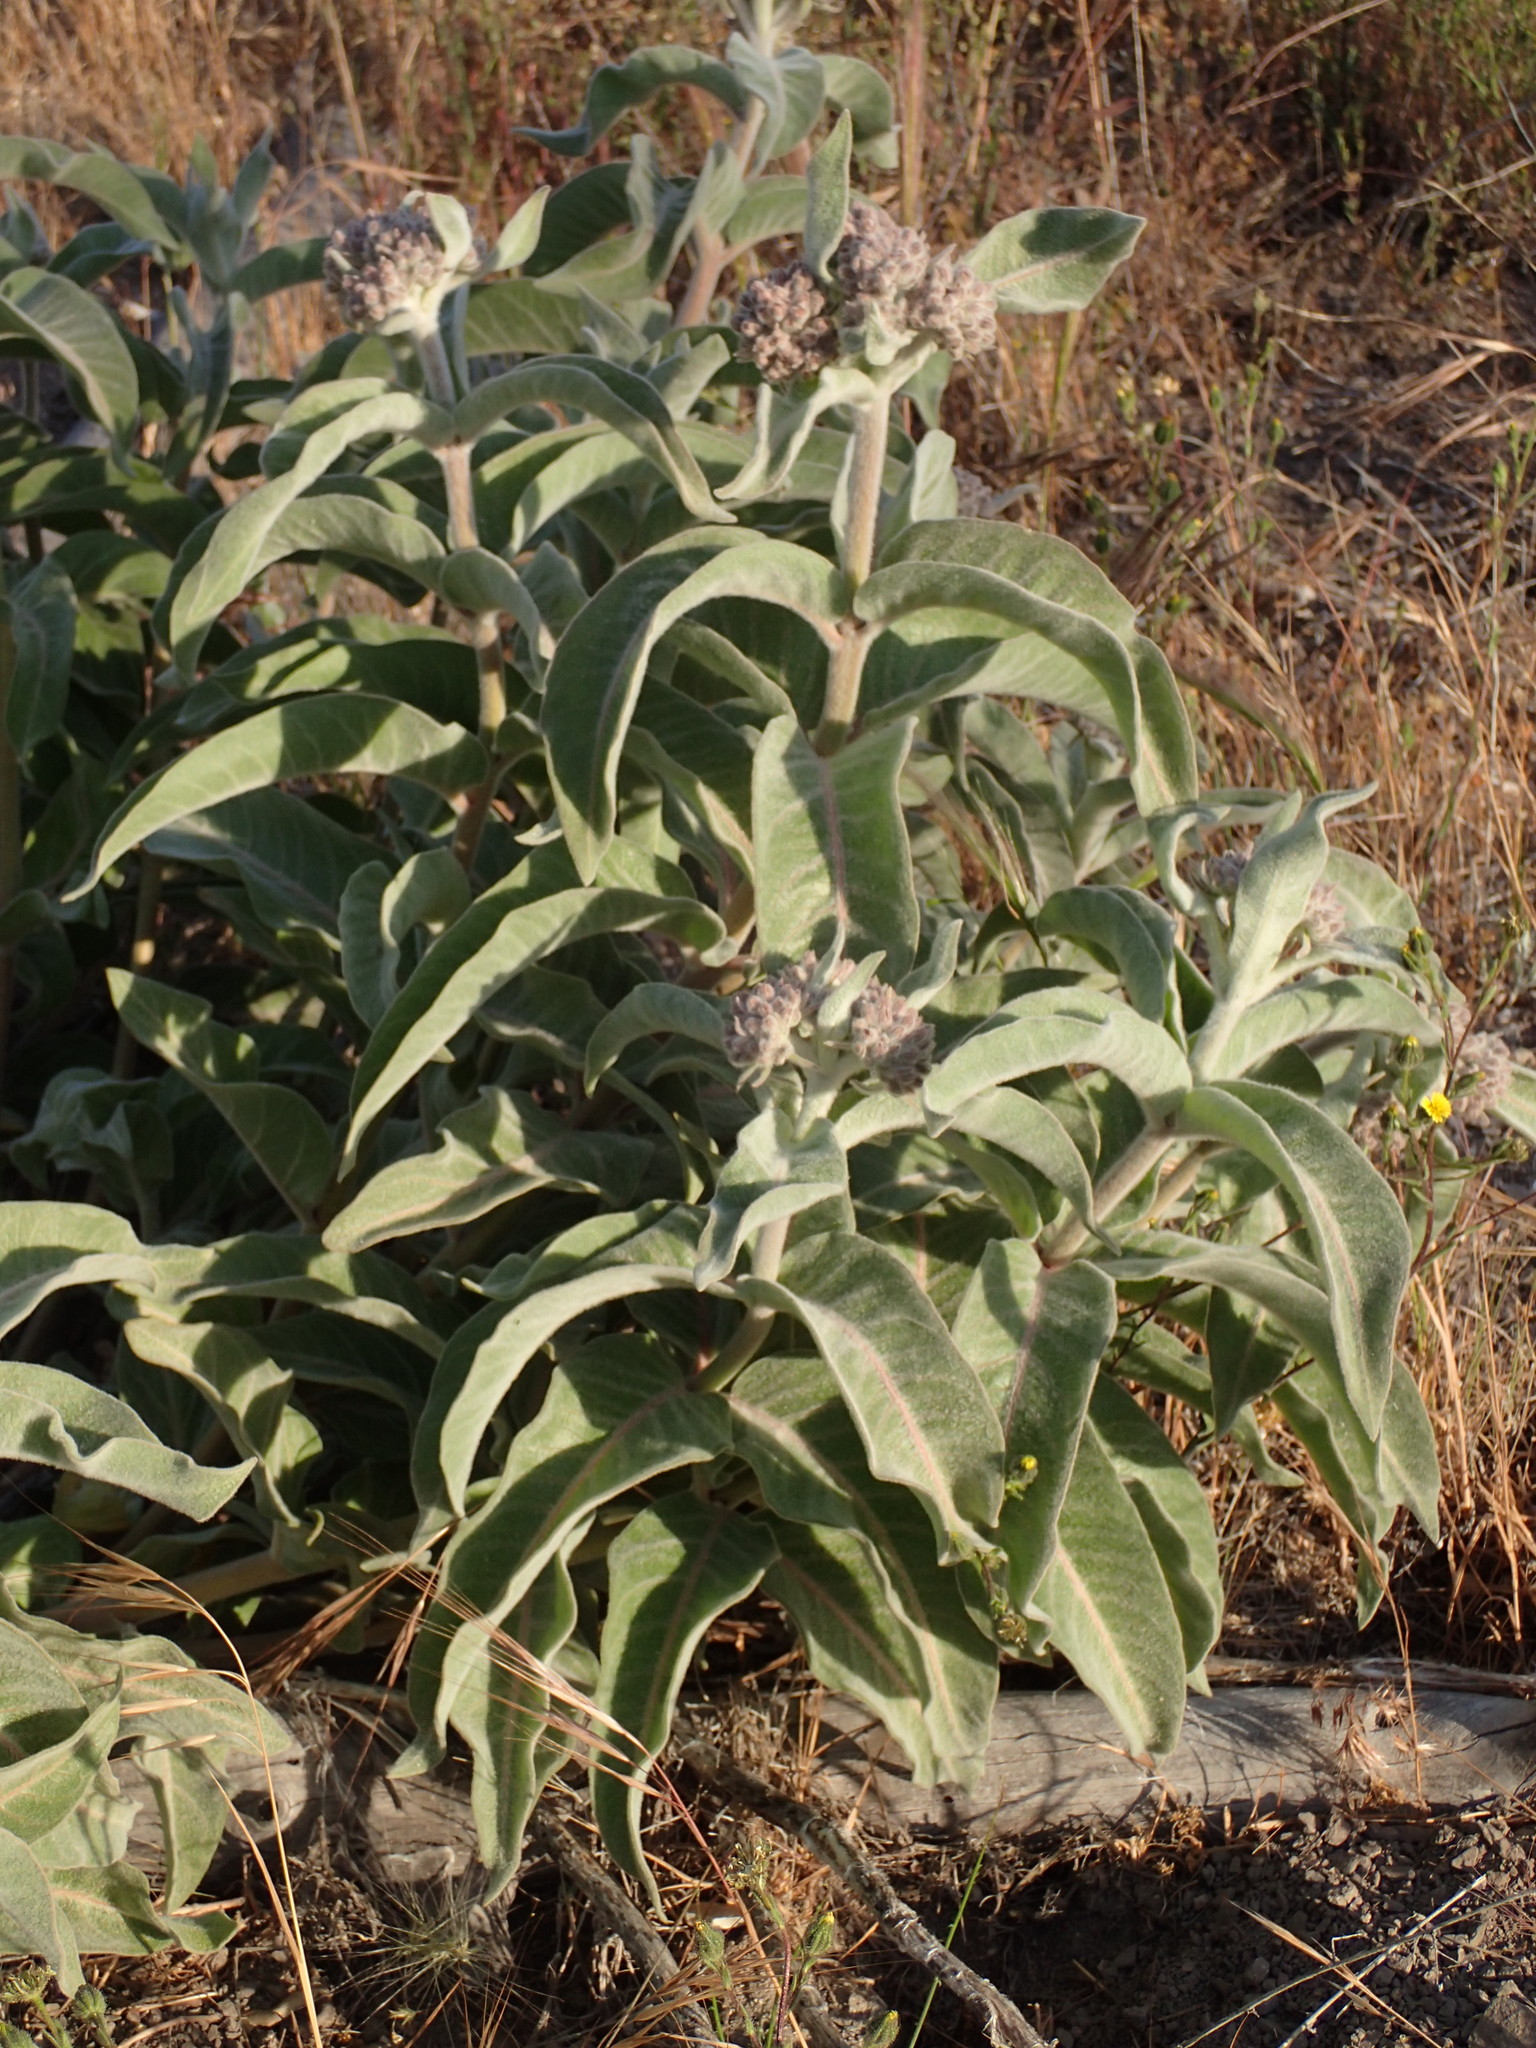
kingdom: Plantae
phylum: Tracheophyta
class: Magnoliopsida
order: Gentianales
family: Apocynaceae
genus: Asclepias
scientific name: Asclepias eriocarpa
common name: Indian milkweed
